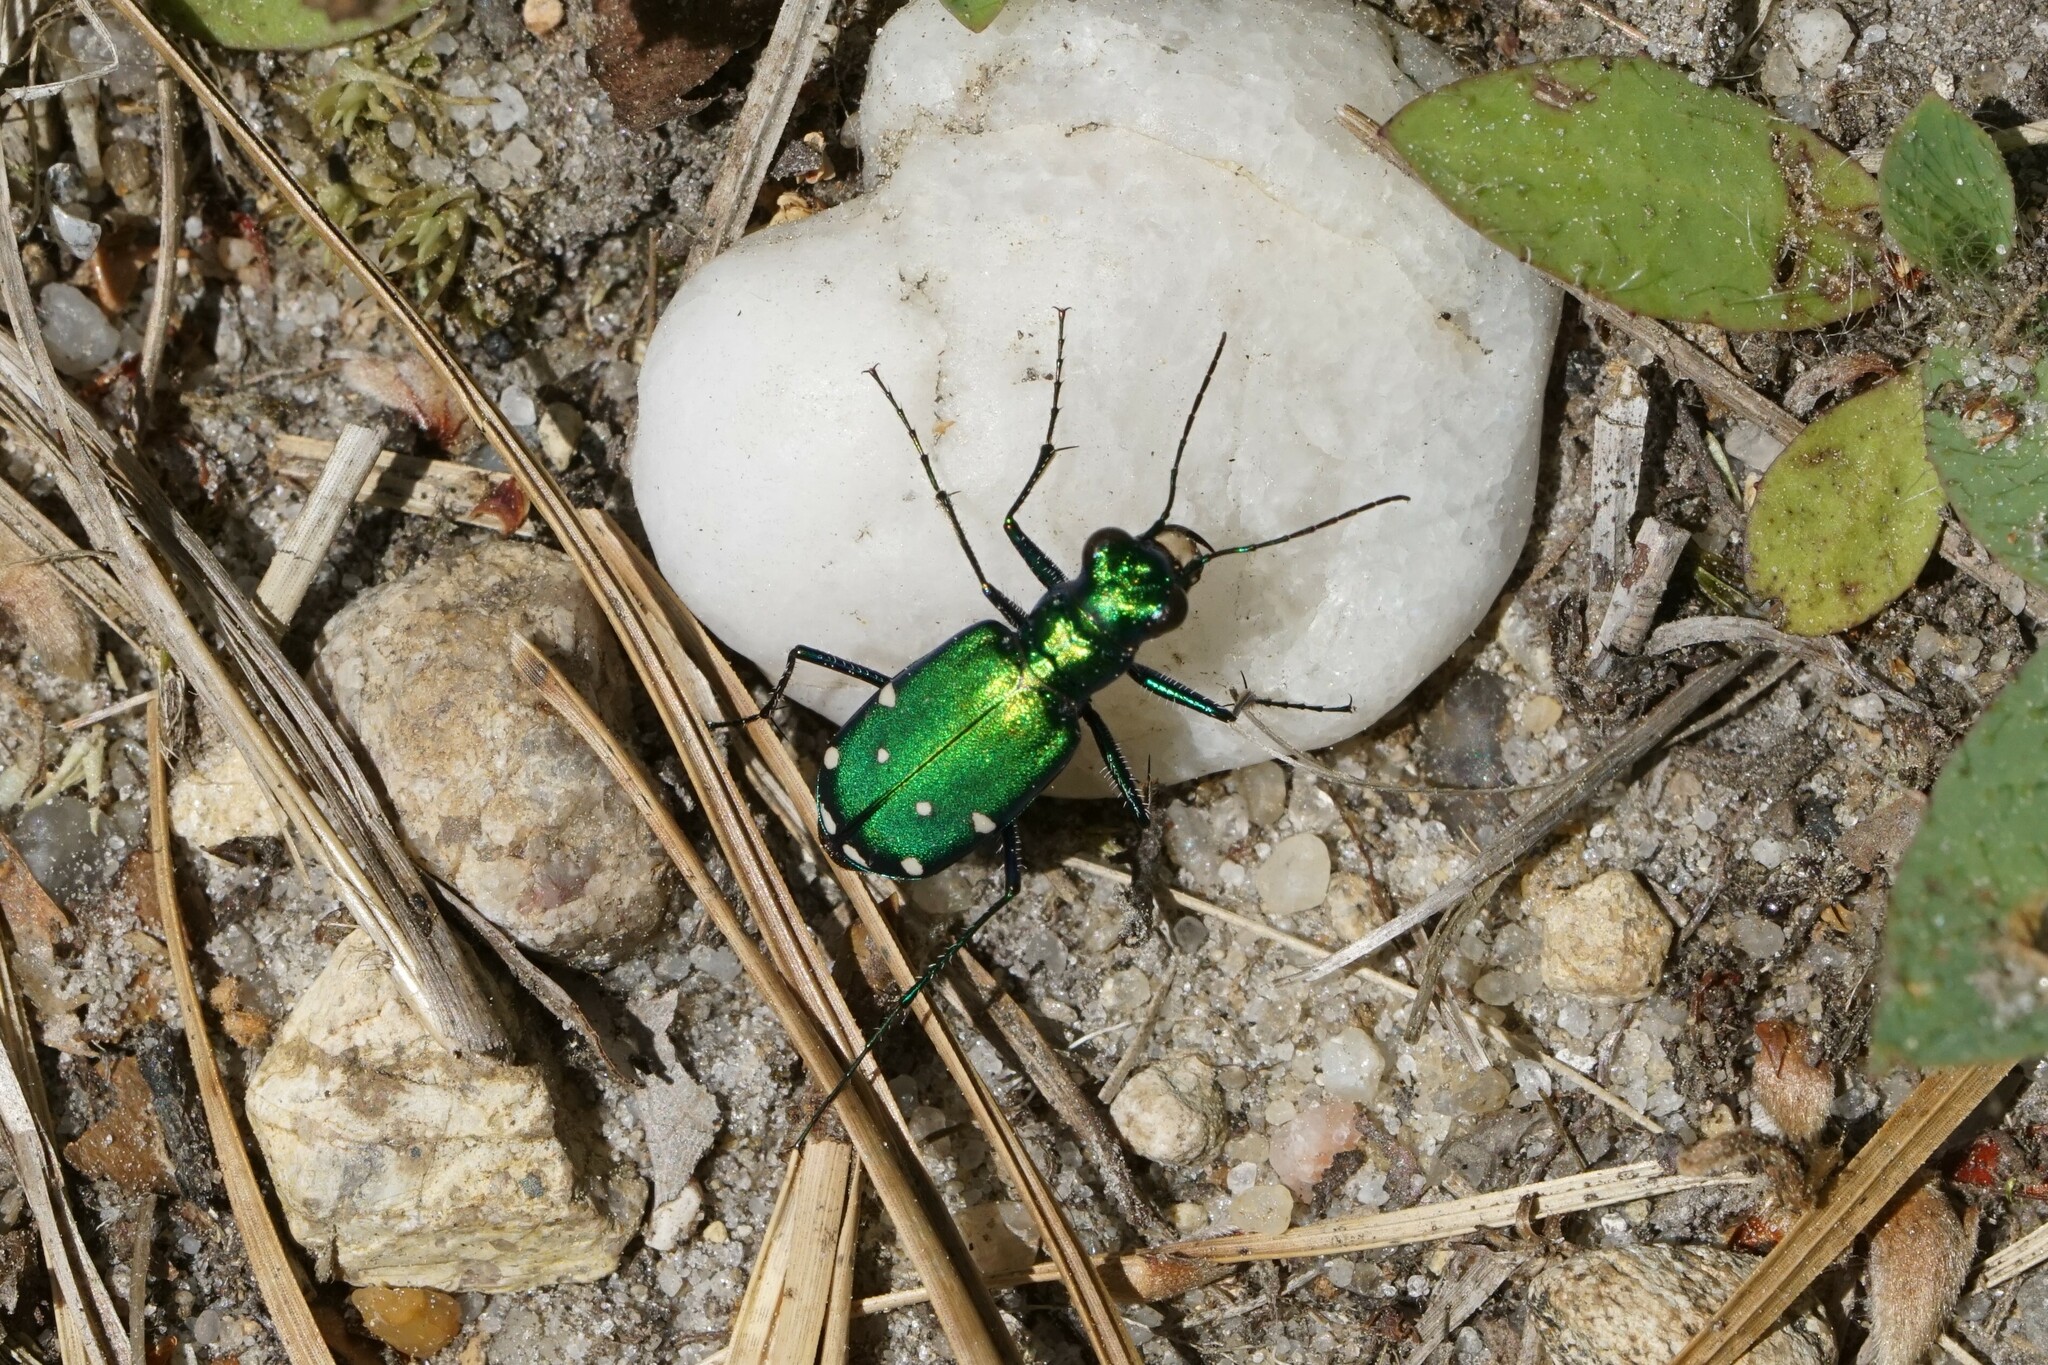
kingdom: Animalia
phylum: Arthropoda
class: Insecta
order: Coleoptera
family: Carabidae
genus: Cicindela
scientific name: Cicindela sexguttata
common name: Six-spotted tiger beetle
